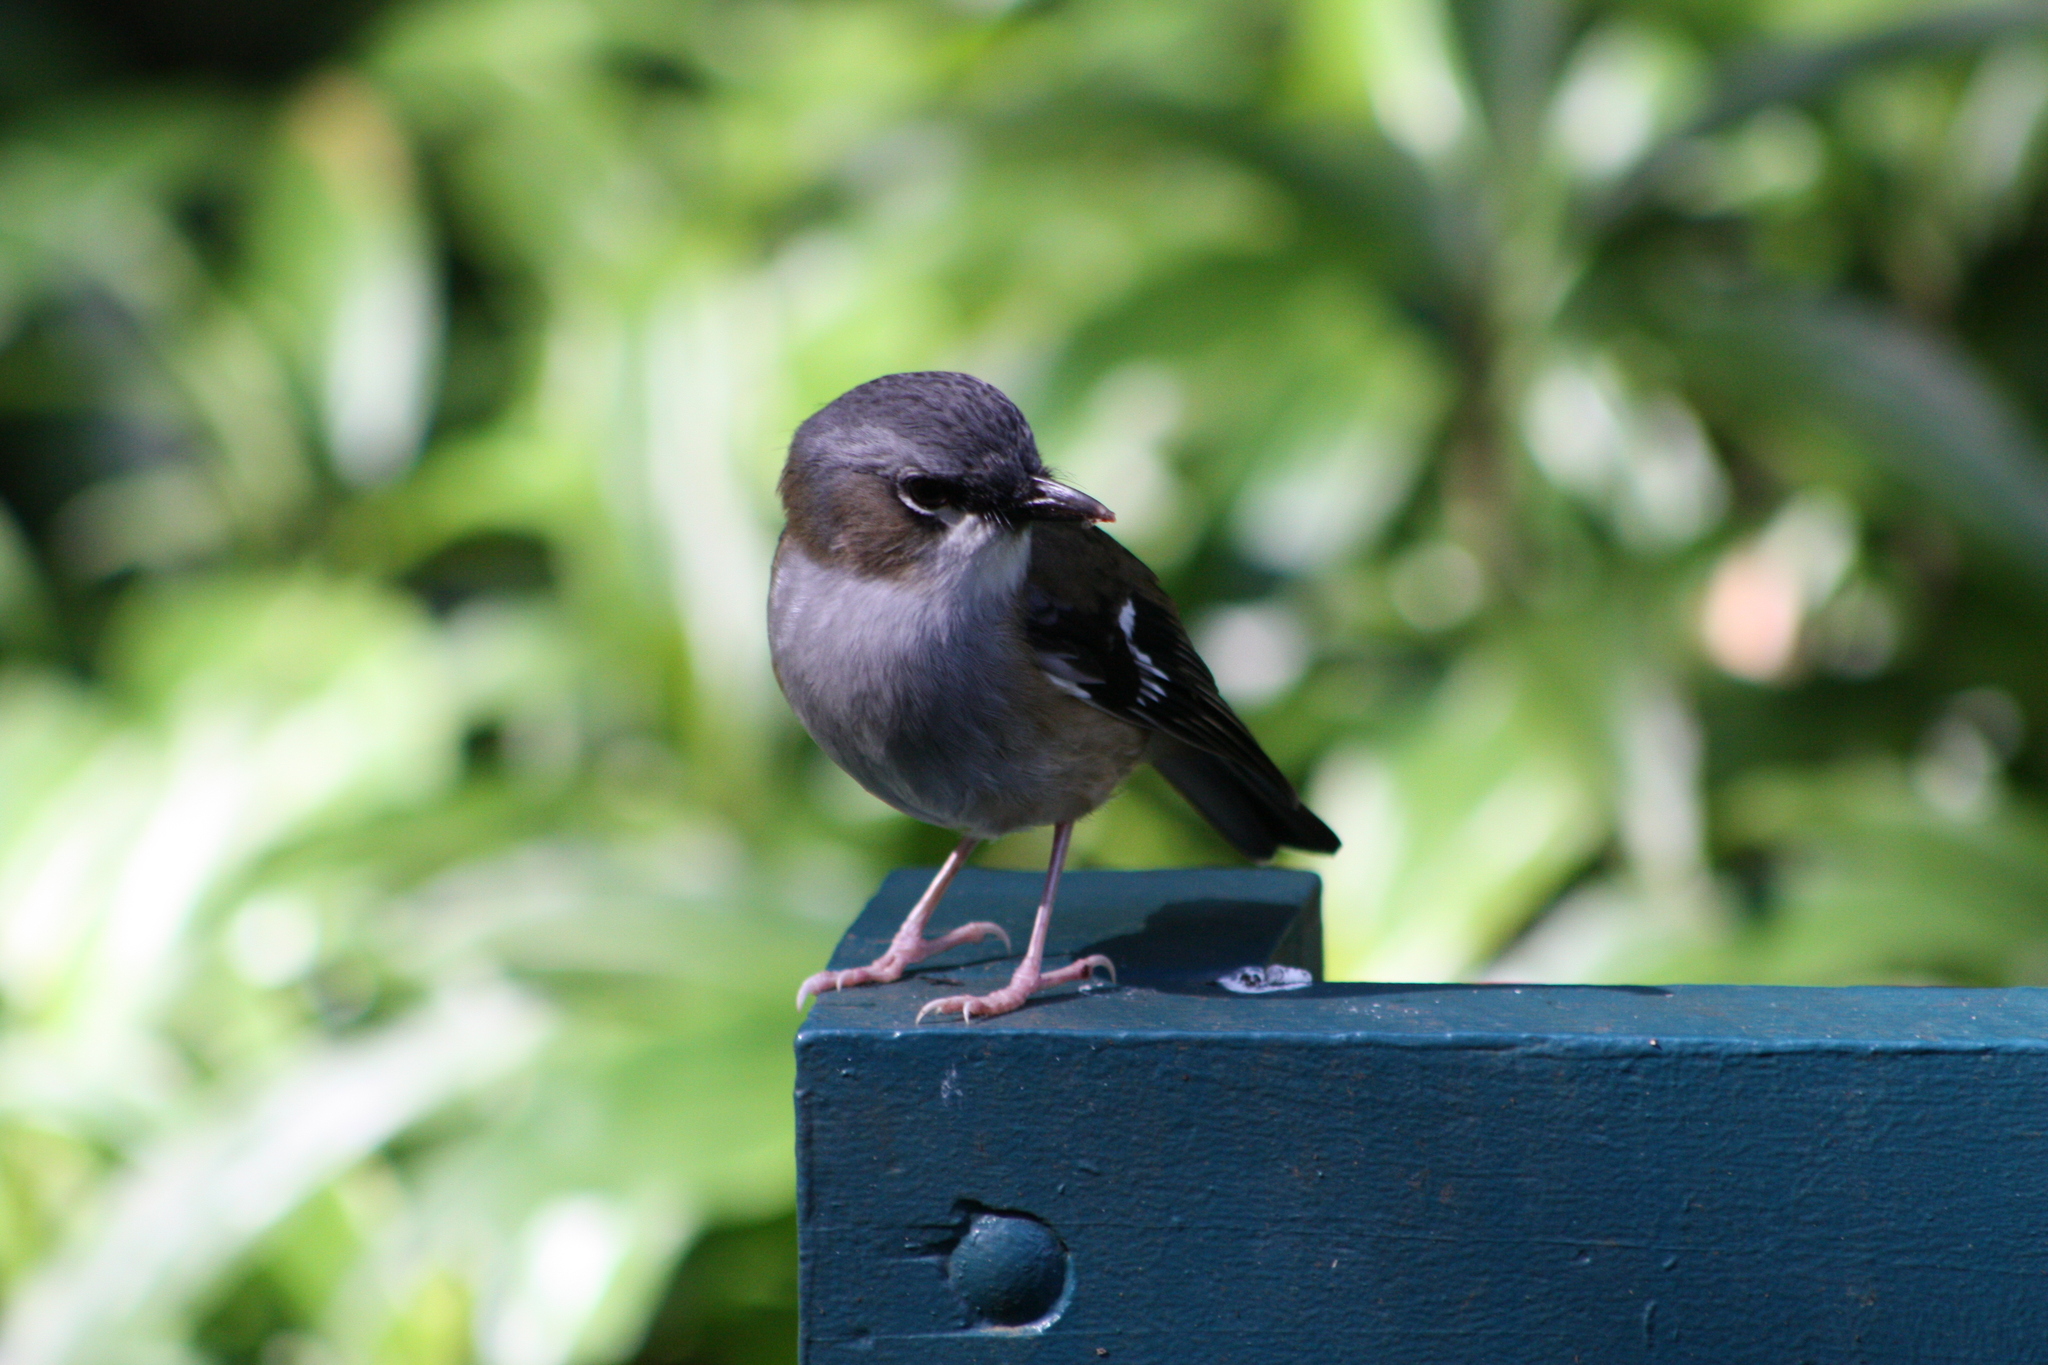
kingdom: Animalia
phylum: Chordata
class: Aves
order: Passeriformes
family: Petroicidae
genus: Heteromyias
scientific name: Heteromyias cinereifrons
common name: Grey-headed robin
